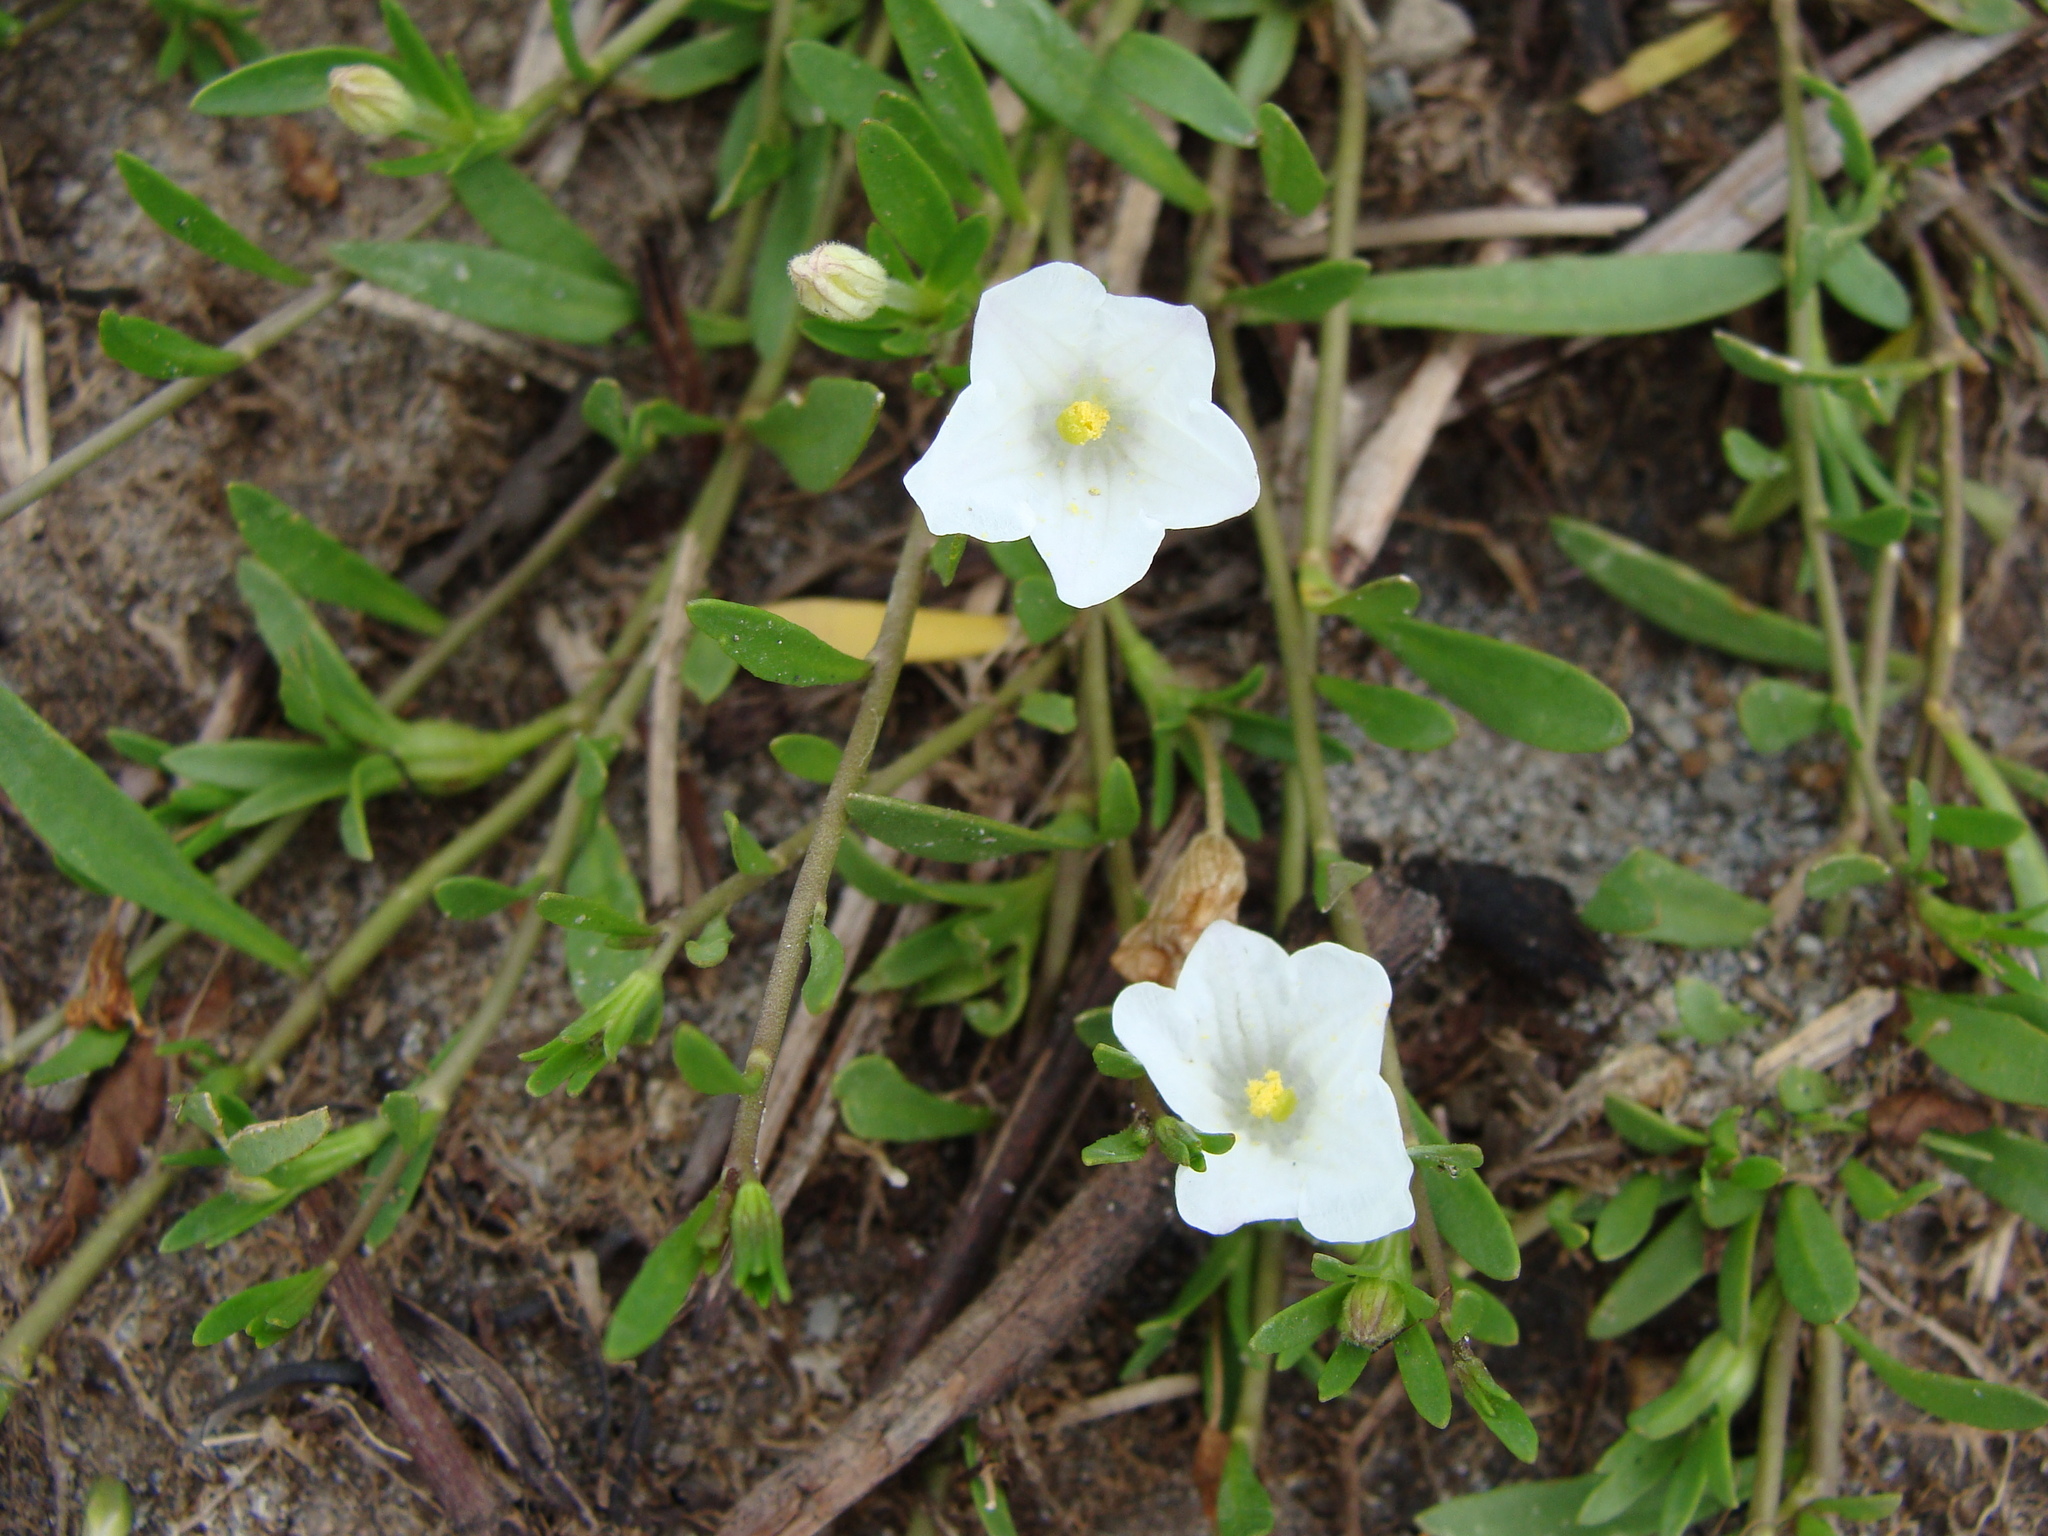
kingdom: Plantae
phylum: Tracheophyta
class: Magnoliopsida
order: Solanales
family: Solanaceae
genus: Salpiglossis
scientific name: Salpiglossis erecta
